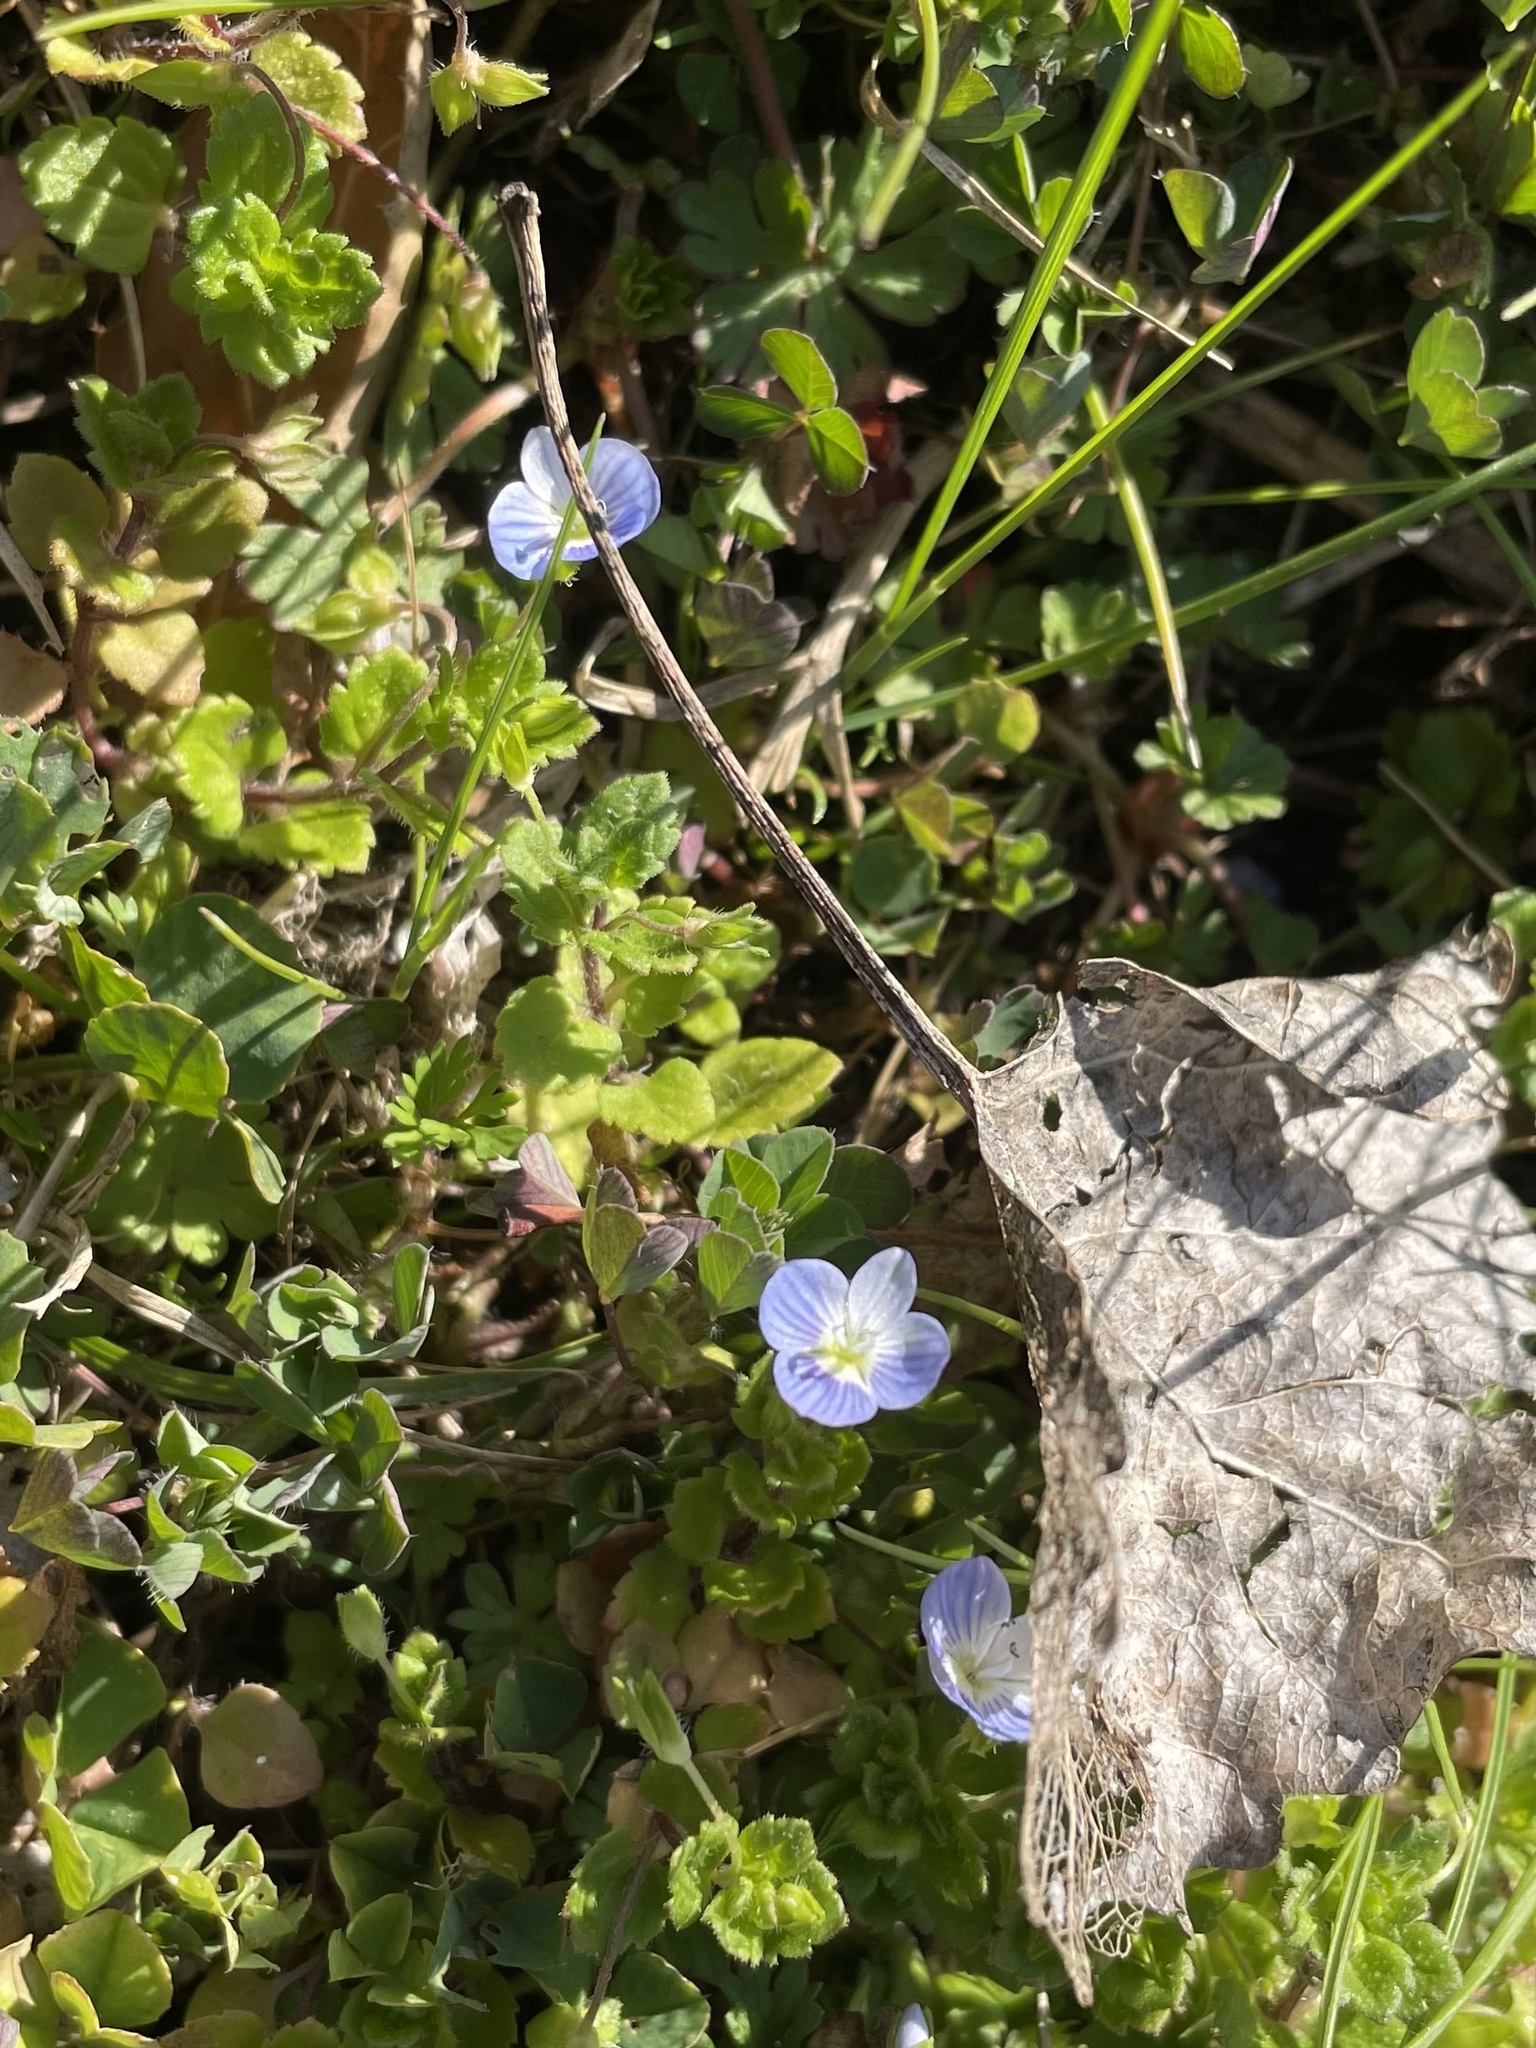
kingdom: Plantae
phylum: Tracheophyta
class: Magnoliopsida
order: Lamiales
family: Plantaginaceae
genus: Veronica
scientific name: Veronica persica
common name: Common field-speedwell
